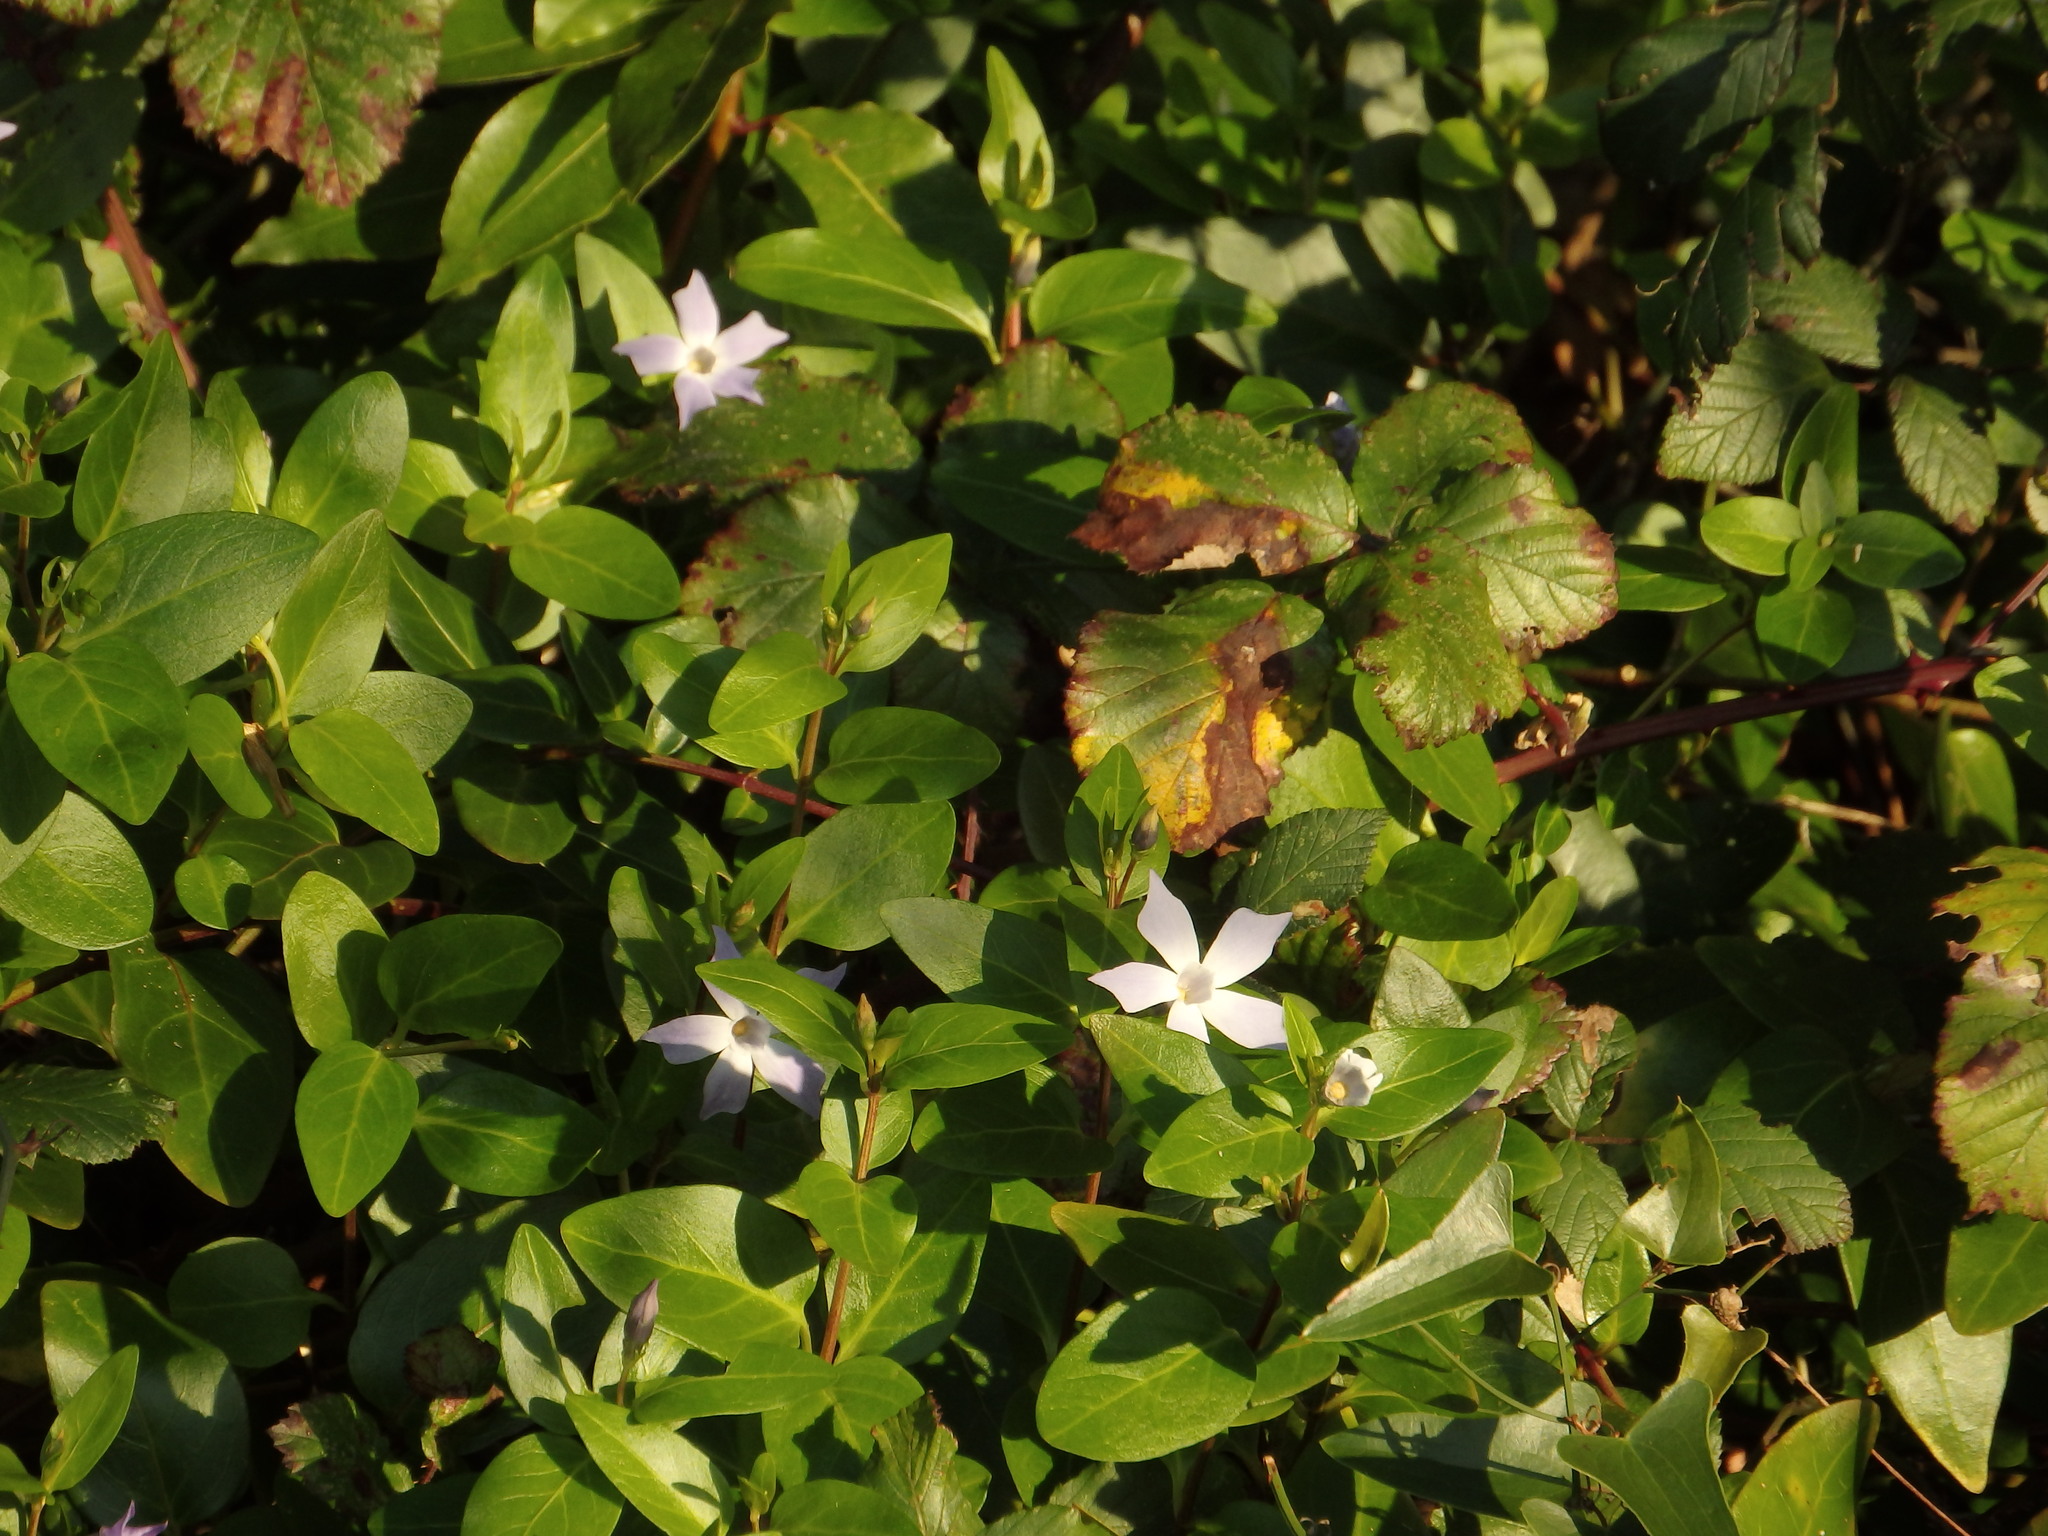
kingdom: Plantae
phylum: Tracheophyta
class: Magnoliopsida
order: Gentianales
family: Apocynaceae
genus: Vinca
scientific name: Vinca difformis
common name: Intermediate periwinkle
